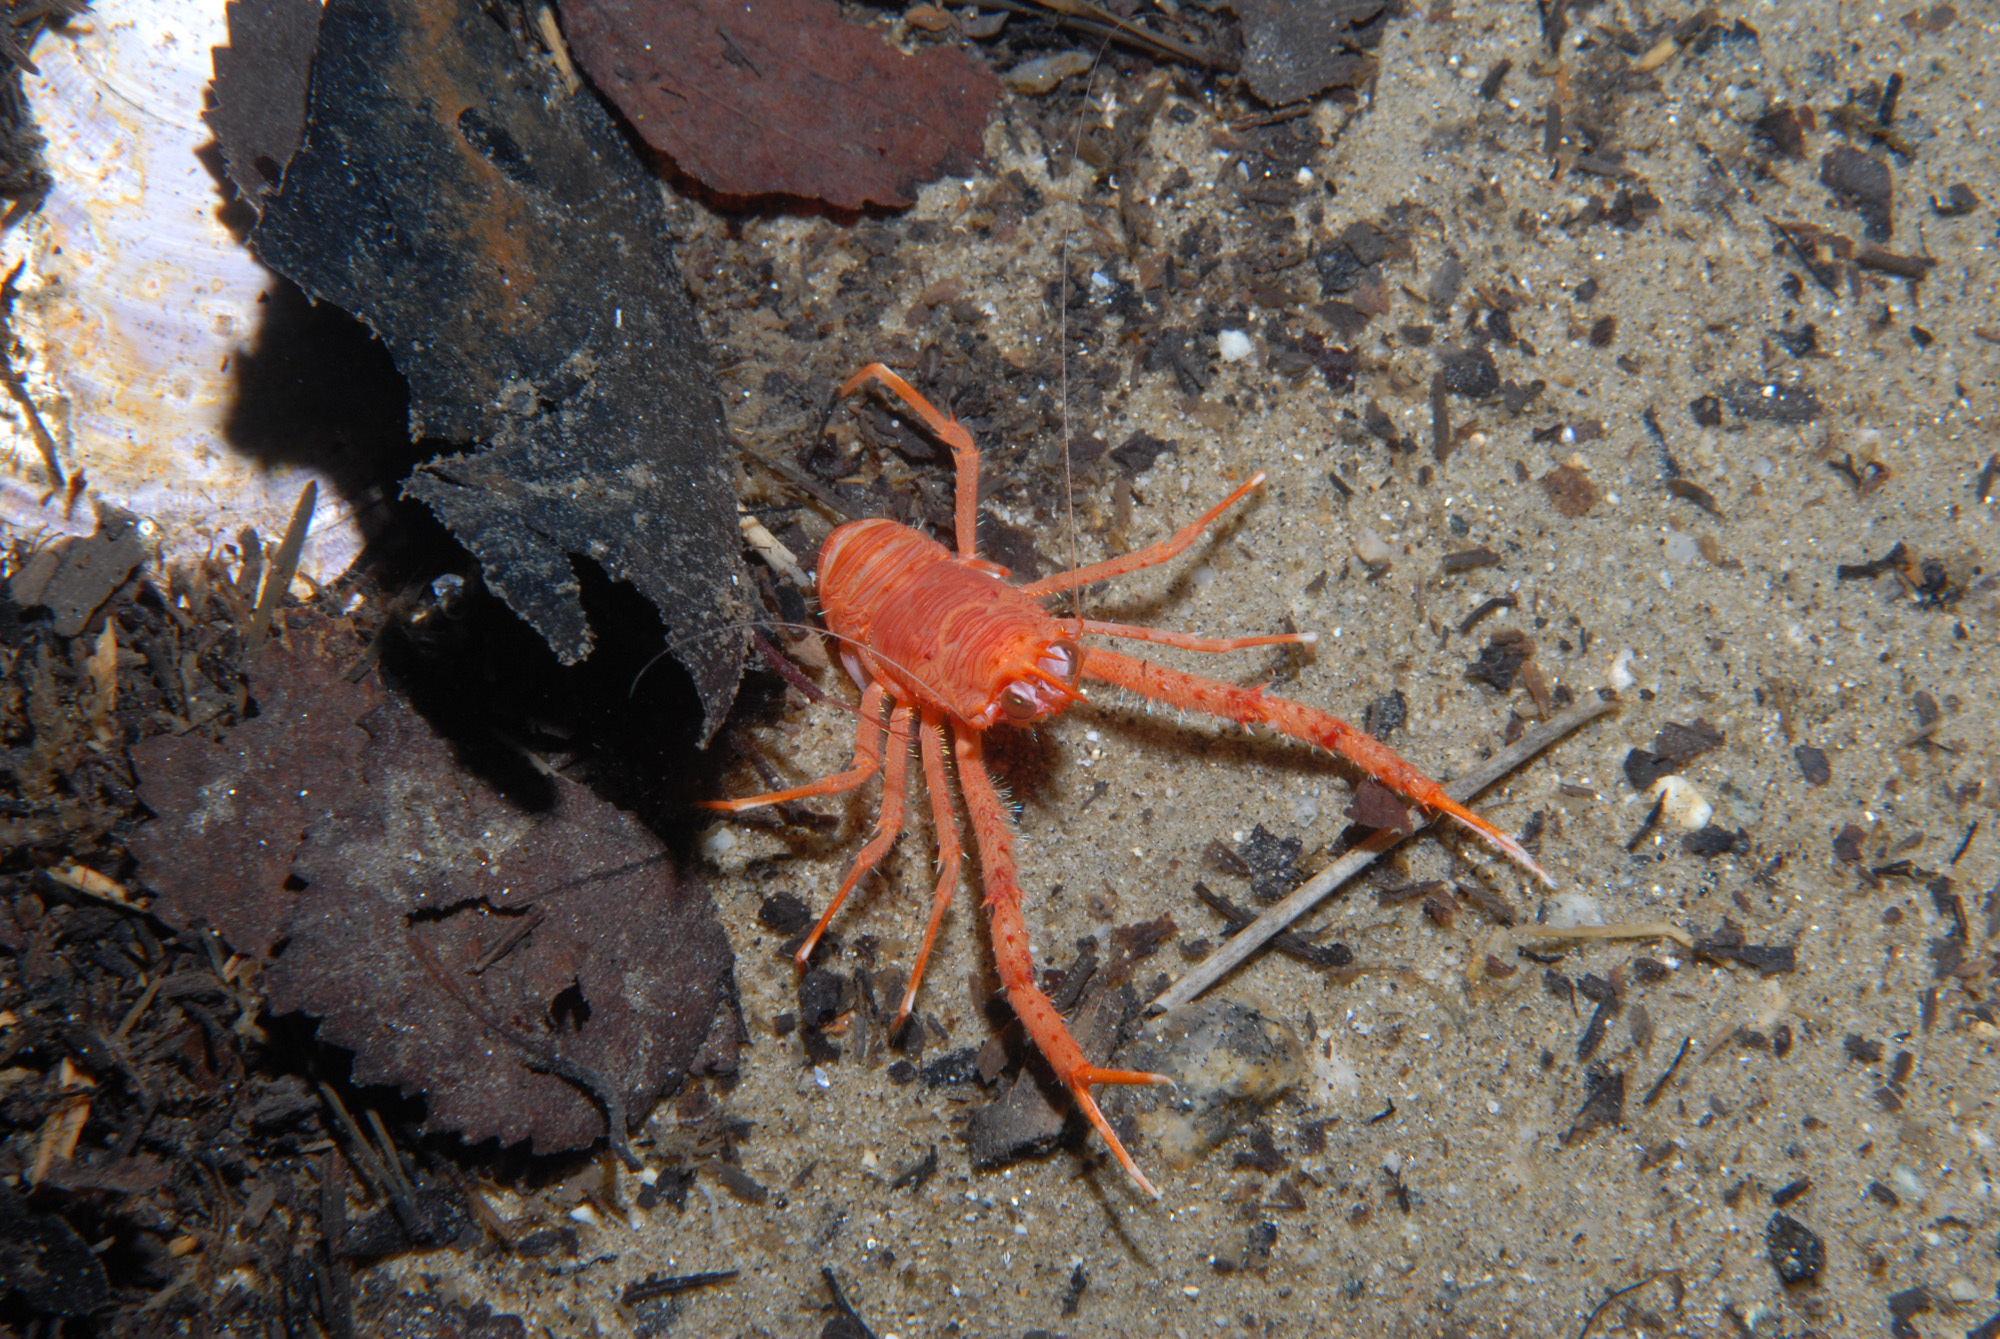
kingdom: Animalia
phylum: Arthropoda
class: Malacostraca
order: Decapoda
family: Munididae
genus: Munida
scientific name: Munida rugosa
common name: Rugose squat lobster
